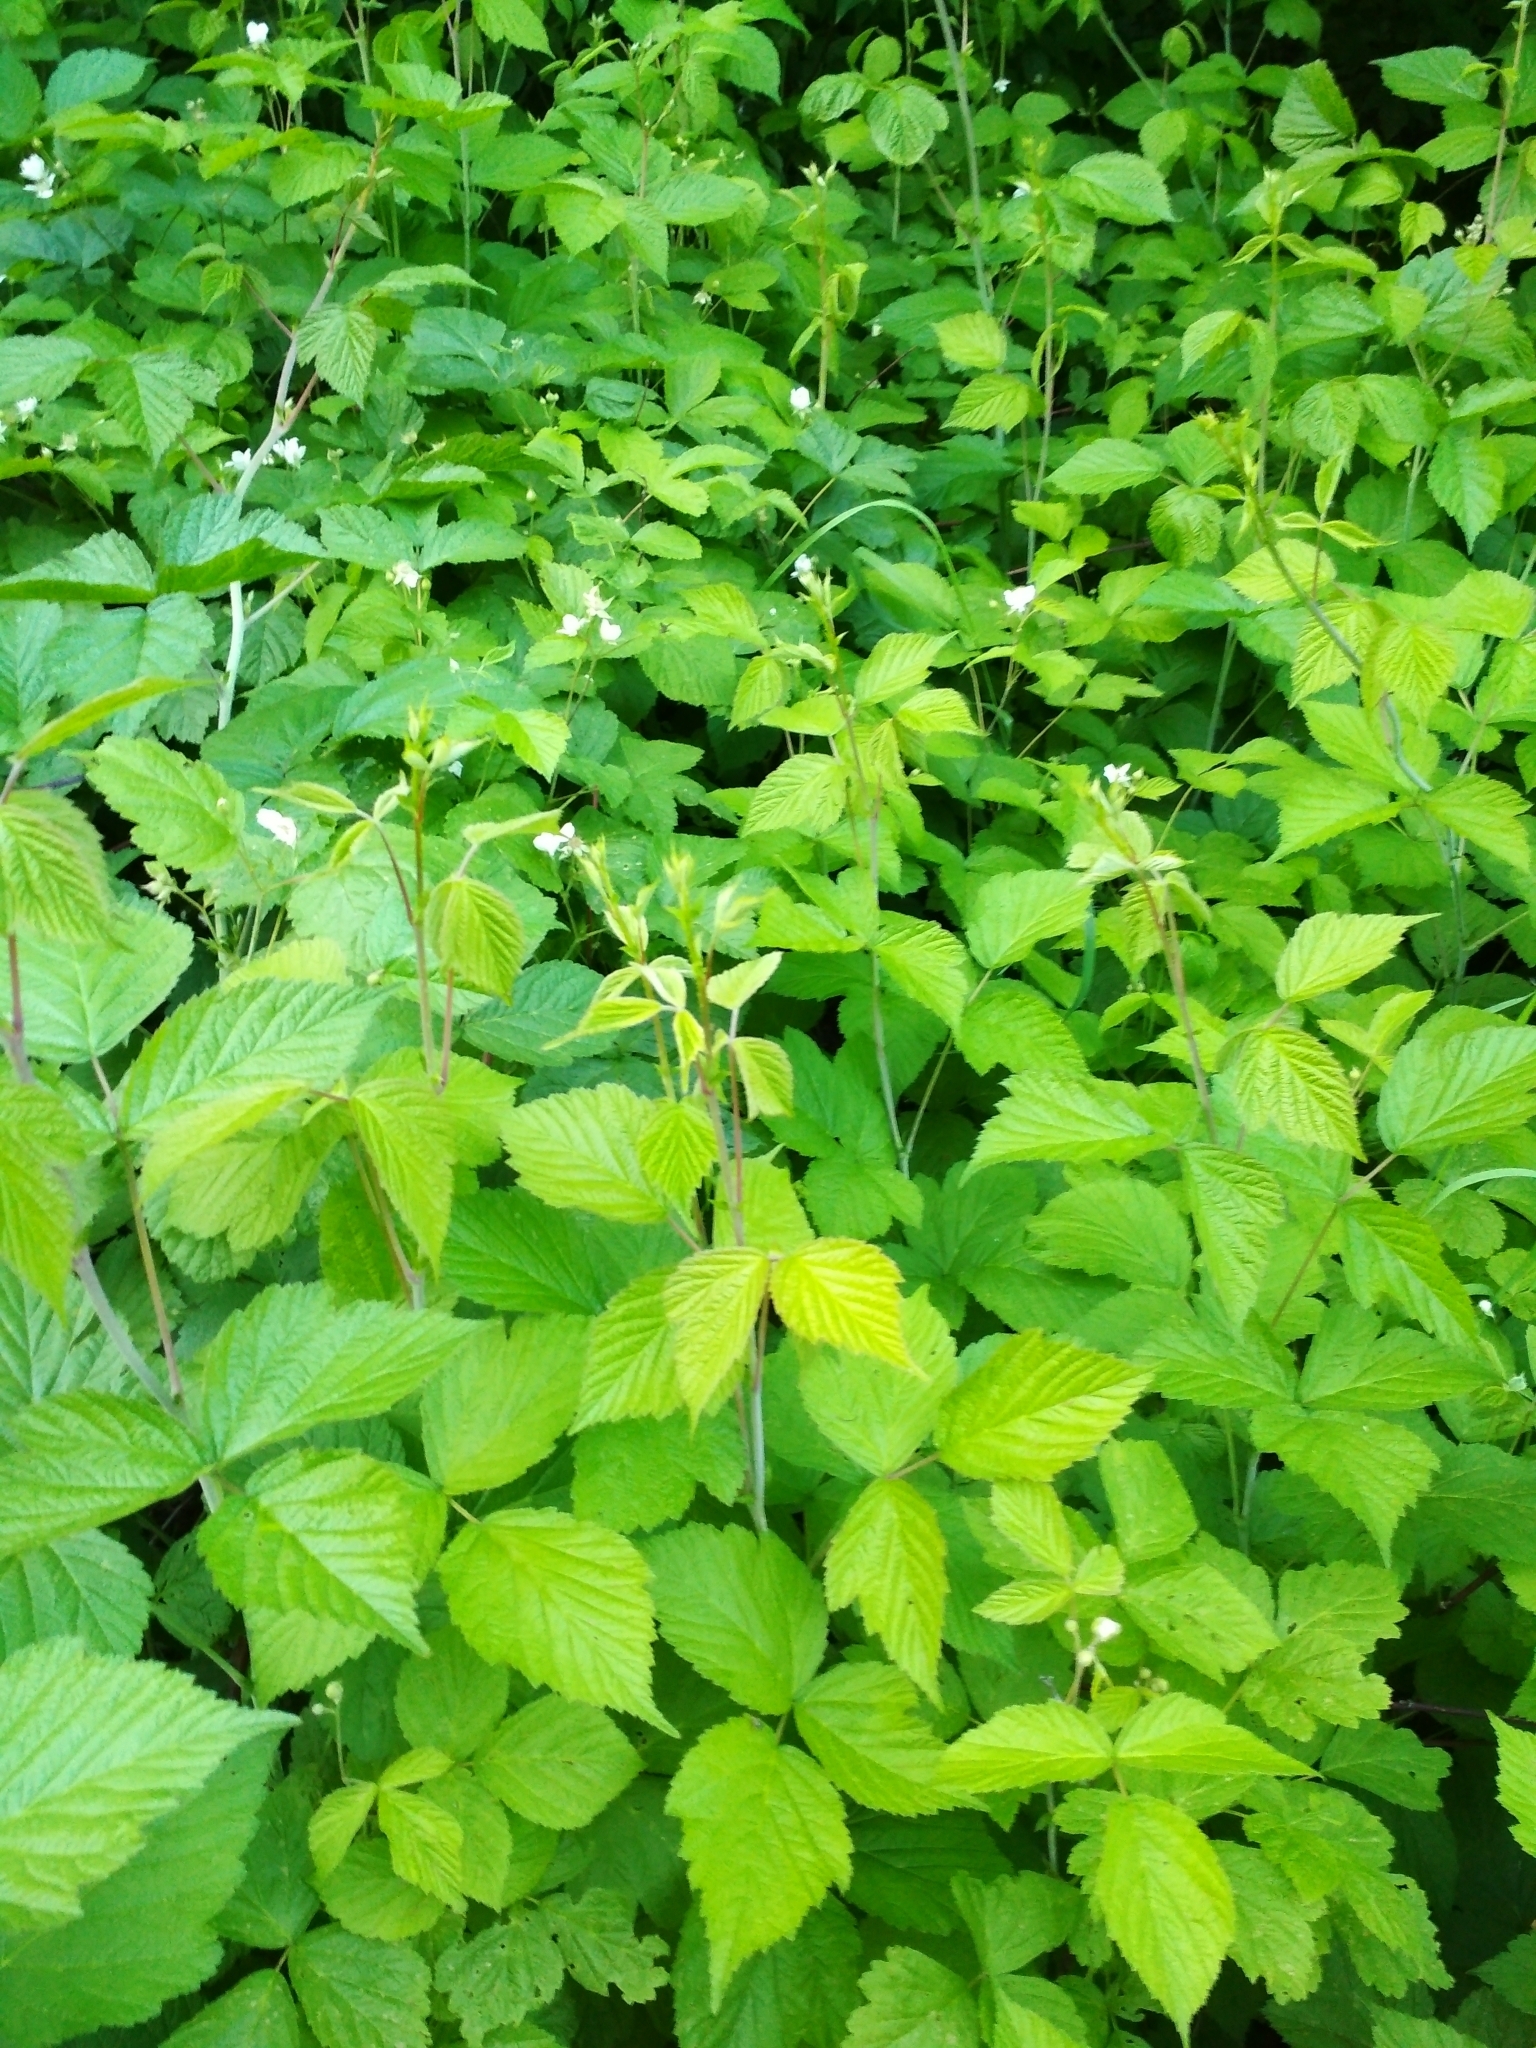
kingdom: Plantae
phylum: Tracheophyta
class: Magnoliopsida
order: Rosales
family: Rosaceae
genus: Rubus
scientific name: Rubus caesius
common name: Dewberry
